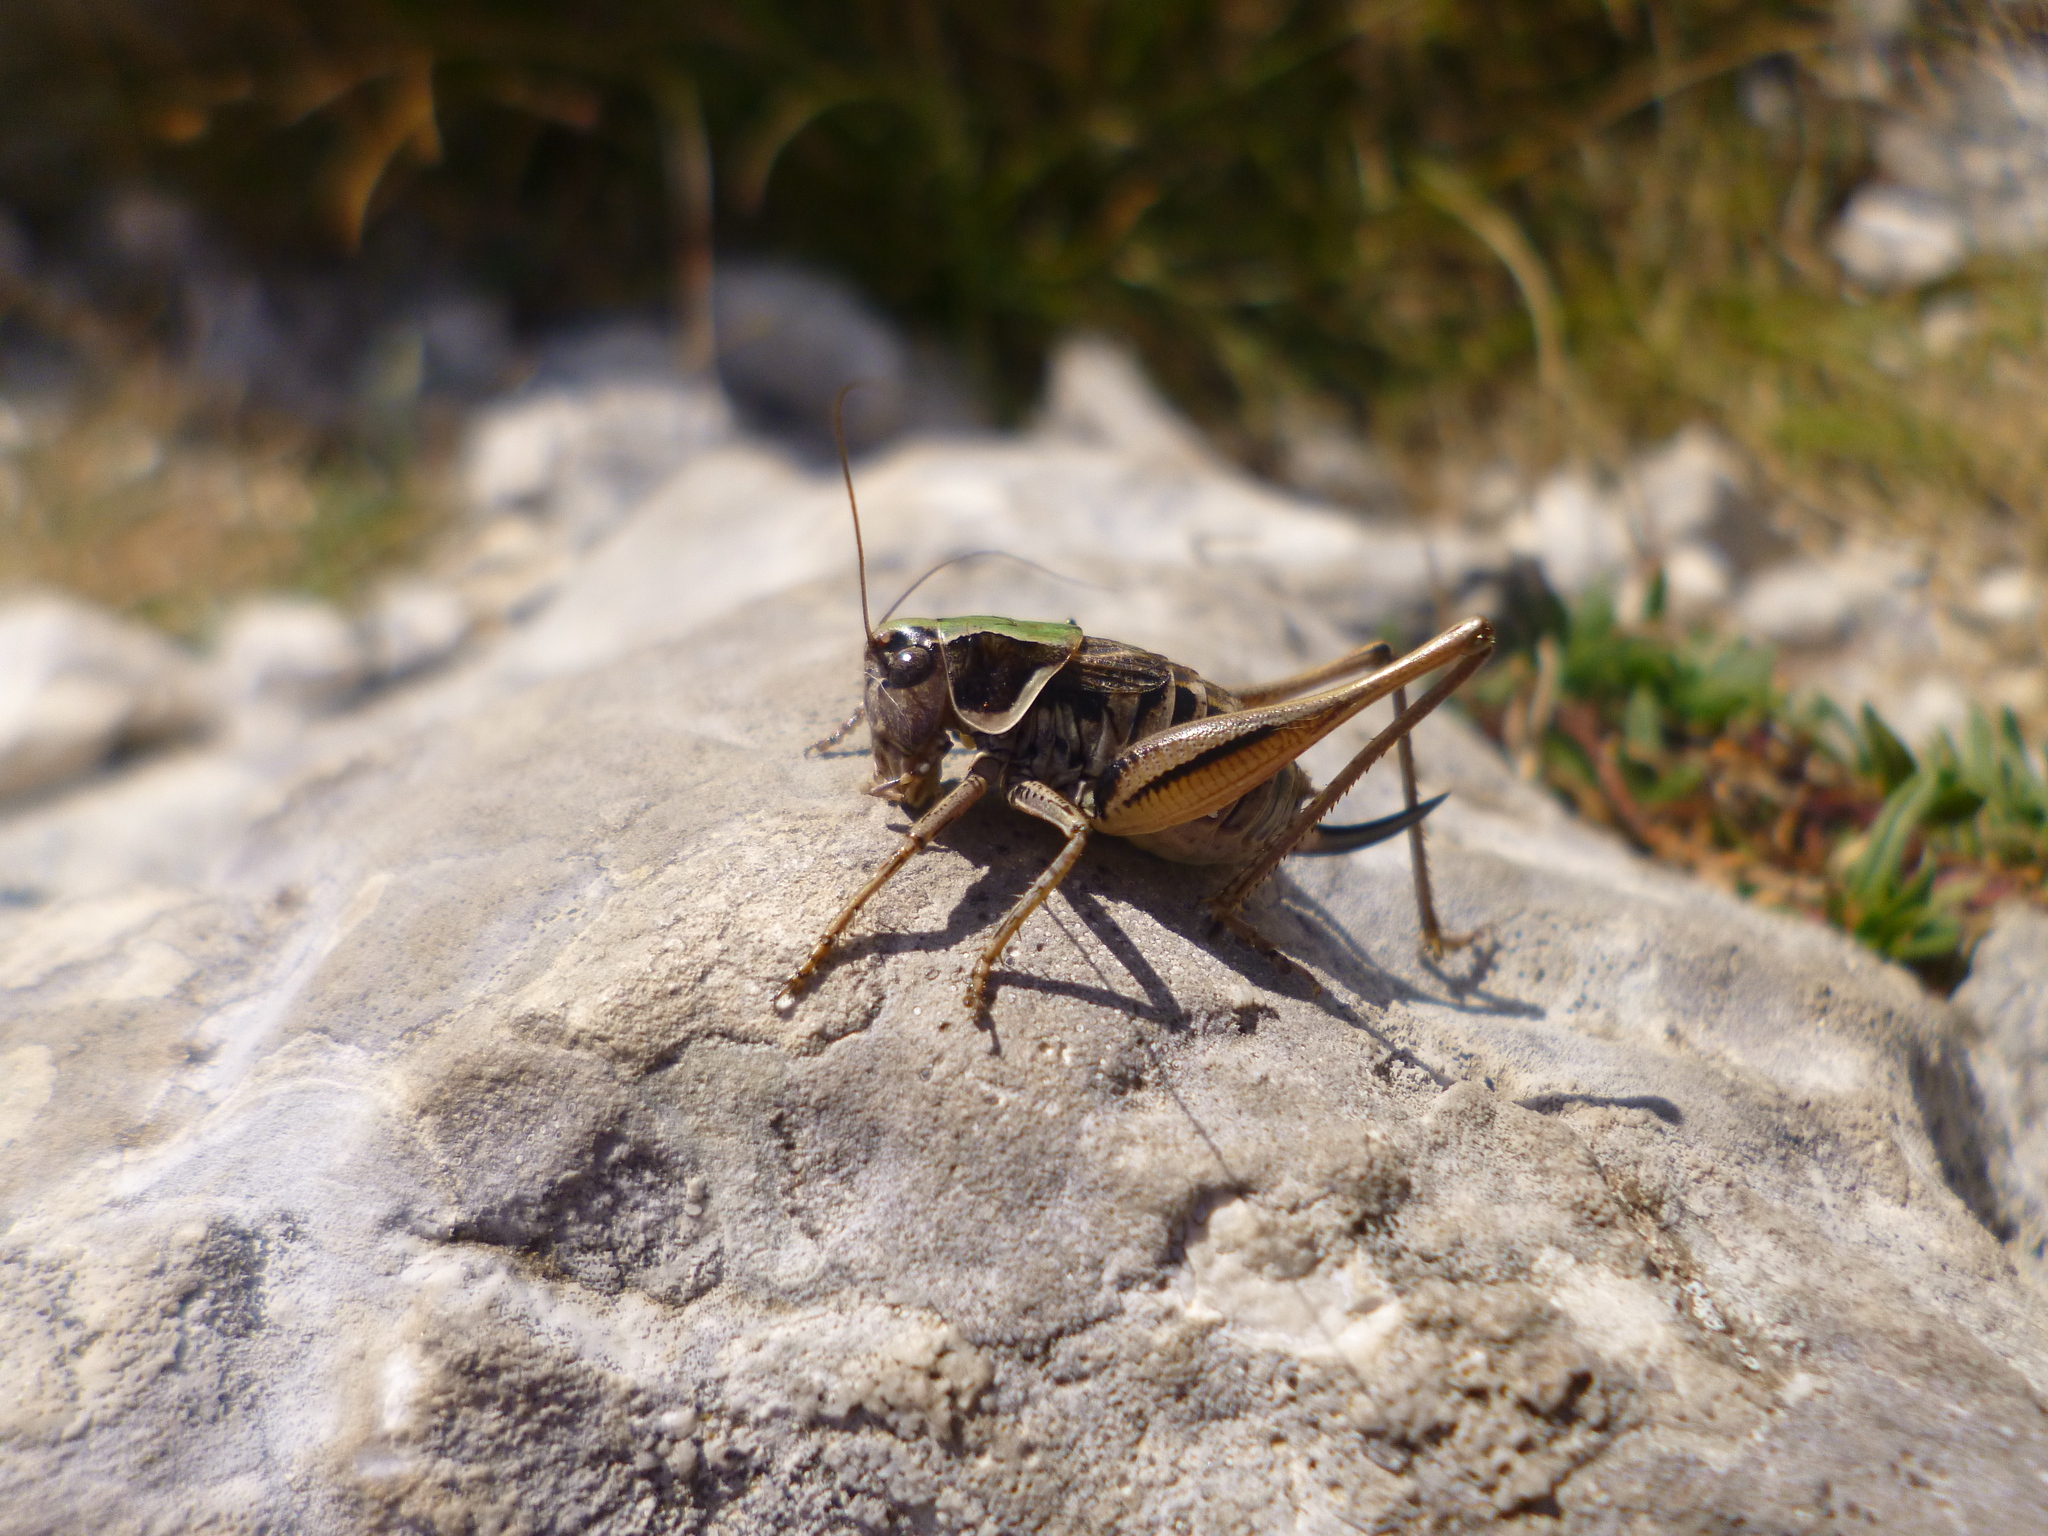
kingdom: Animalia
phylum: Arthropoda
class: Insecta
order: Orthoptera
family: Tettigoniidae
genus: Metrioptera
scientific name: Metrioptera hoermanni
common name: Balkan meadow bush-cricket
